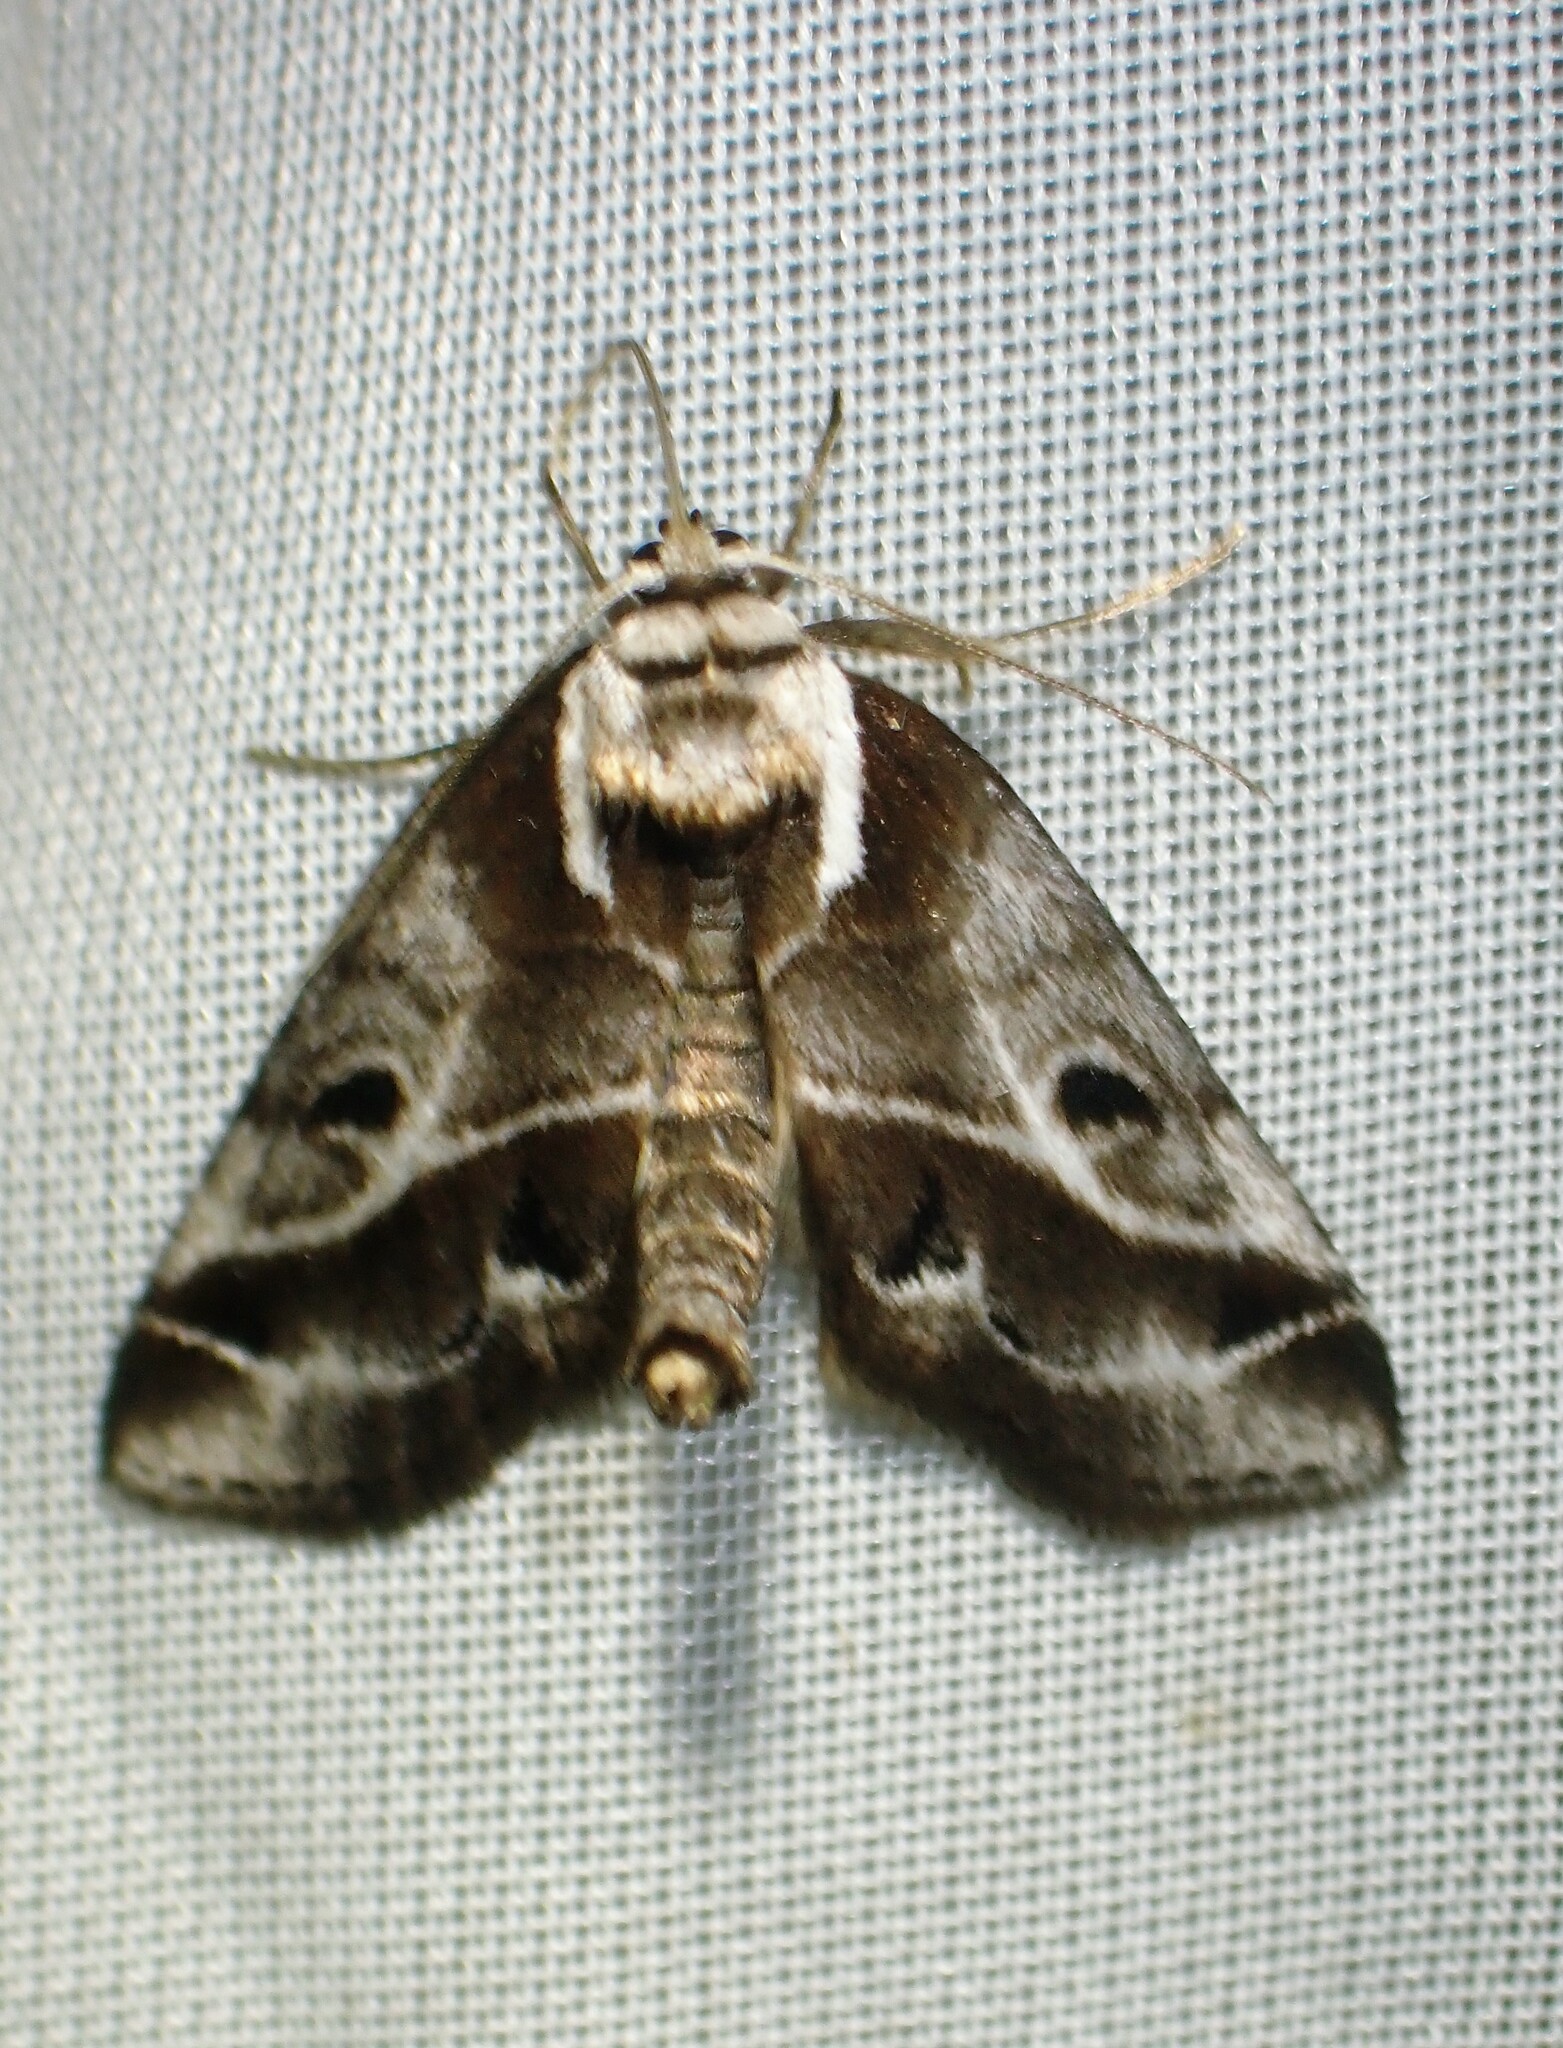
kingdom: Animalia
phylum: Arthropoda
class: Insecta
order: Lepidoptera
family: Nolidae
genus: Baileya
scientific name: Baileya doubledayi
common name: Doubleday's baileya moth
